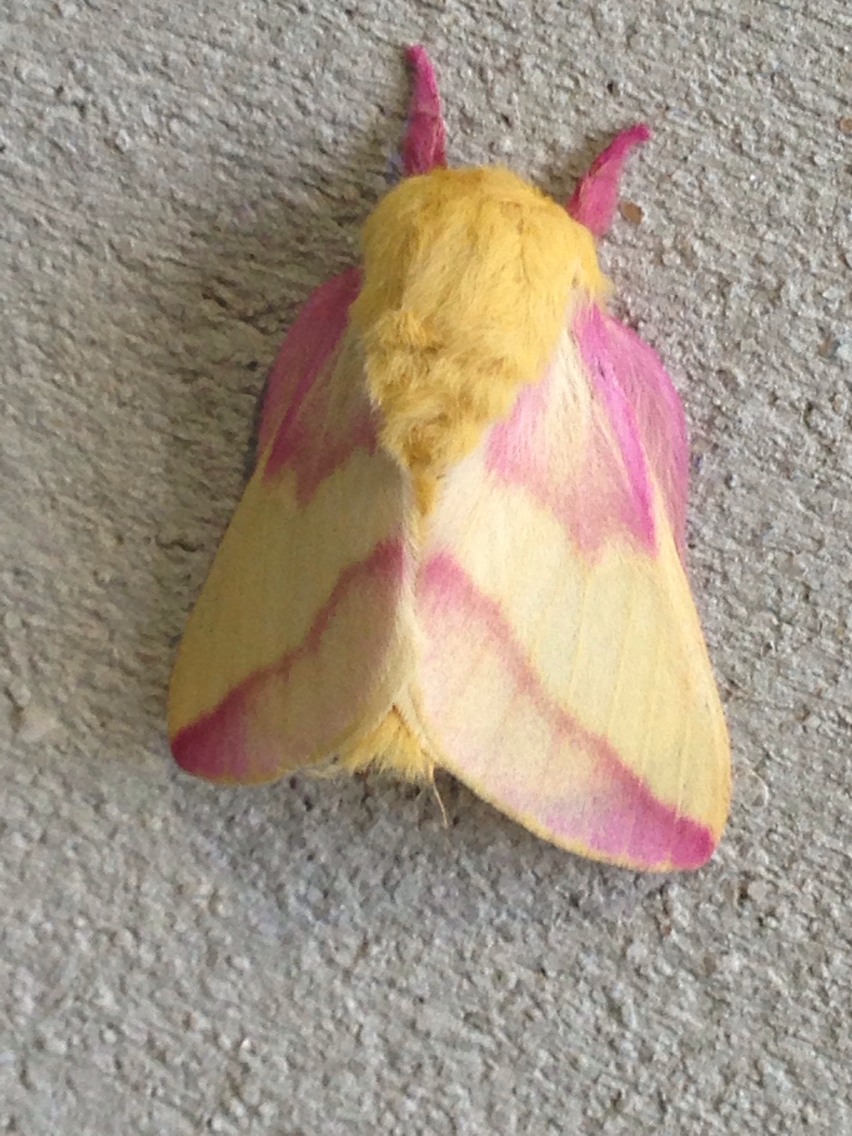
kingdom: Animalia
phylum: Arthropoda
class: Insecta
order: Lepidoptera
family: Saturniidae
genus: Dryocampa
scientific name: Dryocampa rubicunda
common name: Rosy maple moth
